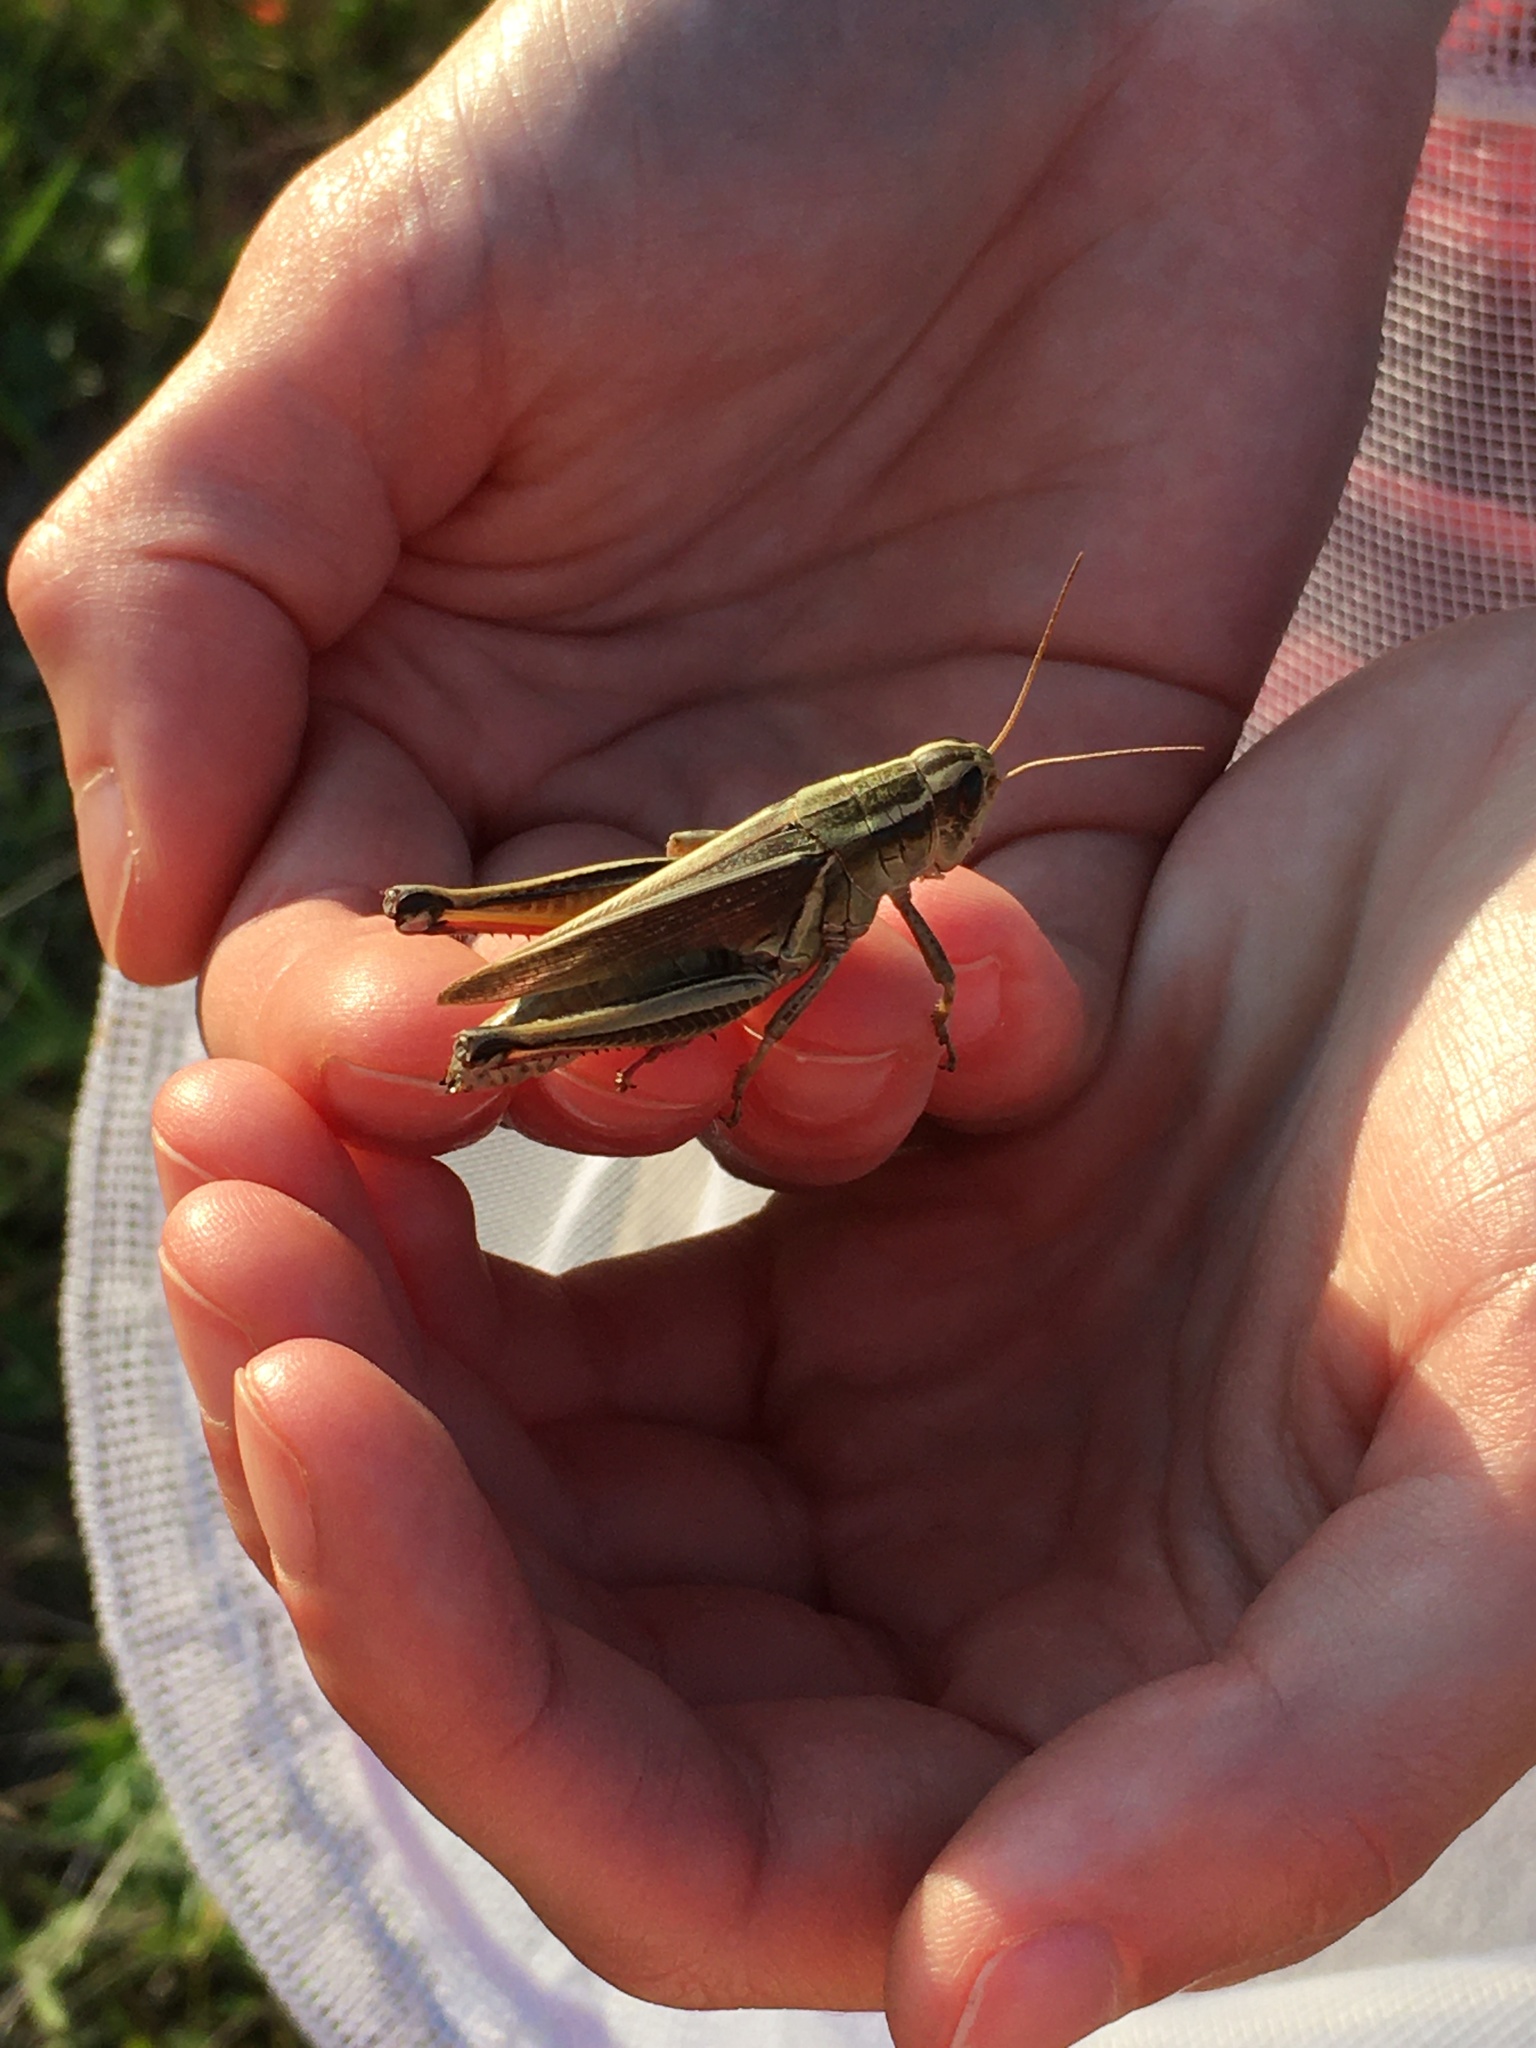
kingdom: Animalia
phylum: Arthropoda
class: Insecta
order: Orthoptera
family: Acrididae
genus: Melanoplus
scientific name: Melanoplus bivittatus
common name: Two-striped grasshopper
